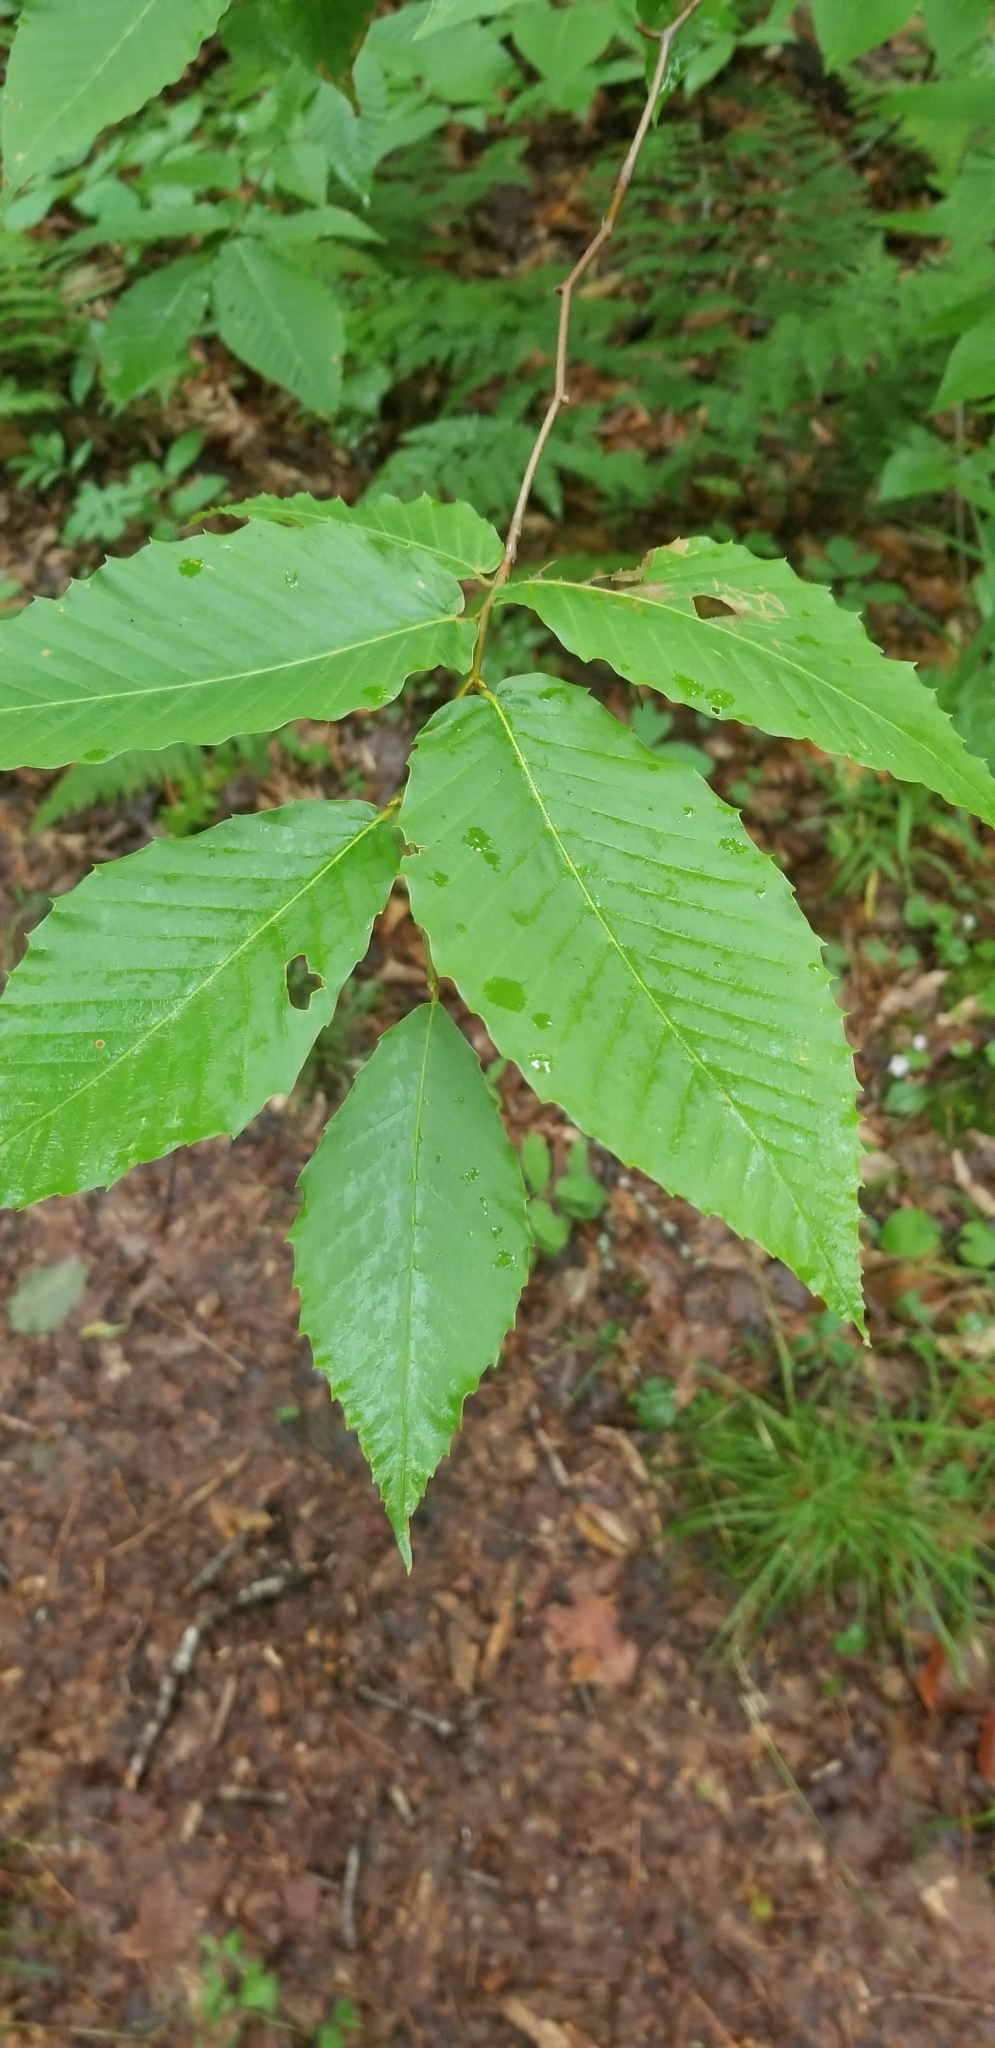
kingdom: Plantae
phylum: Tracheophyta
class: Magnoliopsida
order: Fagales
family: Fagaceae
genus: Fagus
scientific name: Fagus grandifolia
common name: American beech
